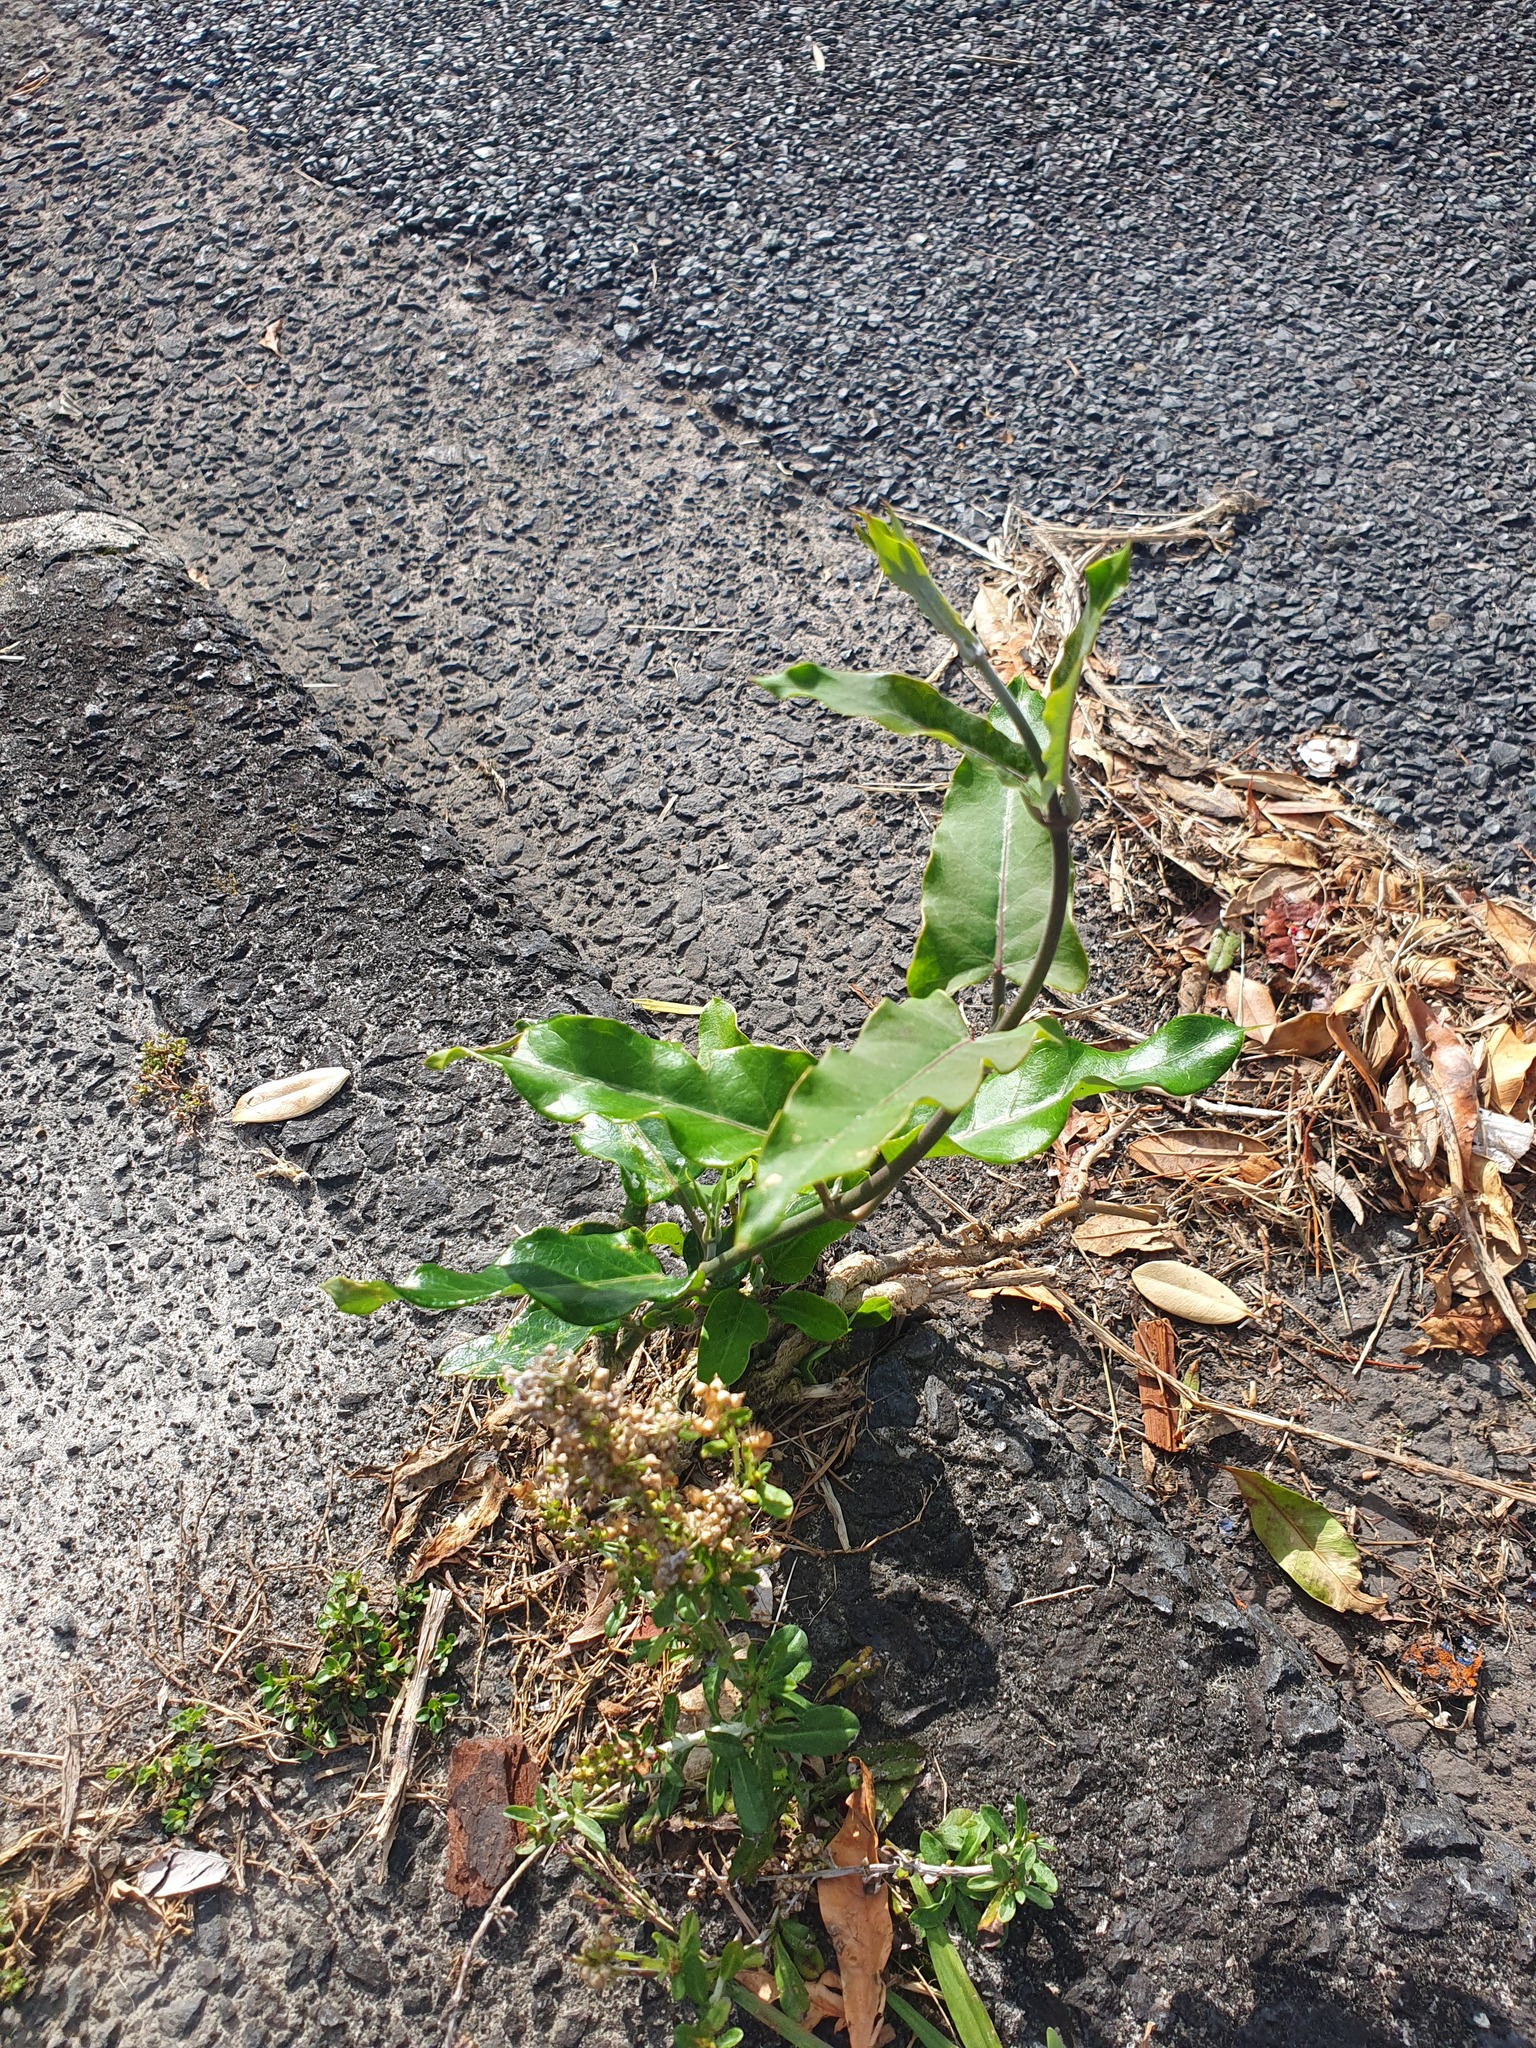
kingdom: Plantae
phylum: Tracheophyta
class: Magnoliopsida
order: Gentianales
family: Apocynaceae
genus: Araujia
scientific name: Araujia sericifera
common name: White bladderflower
